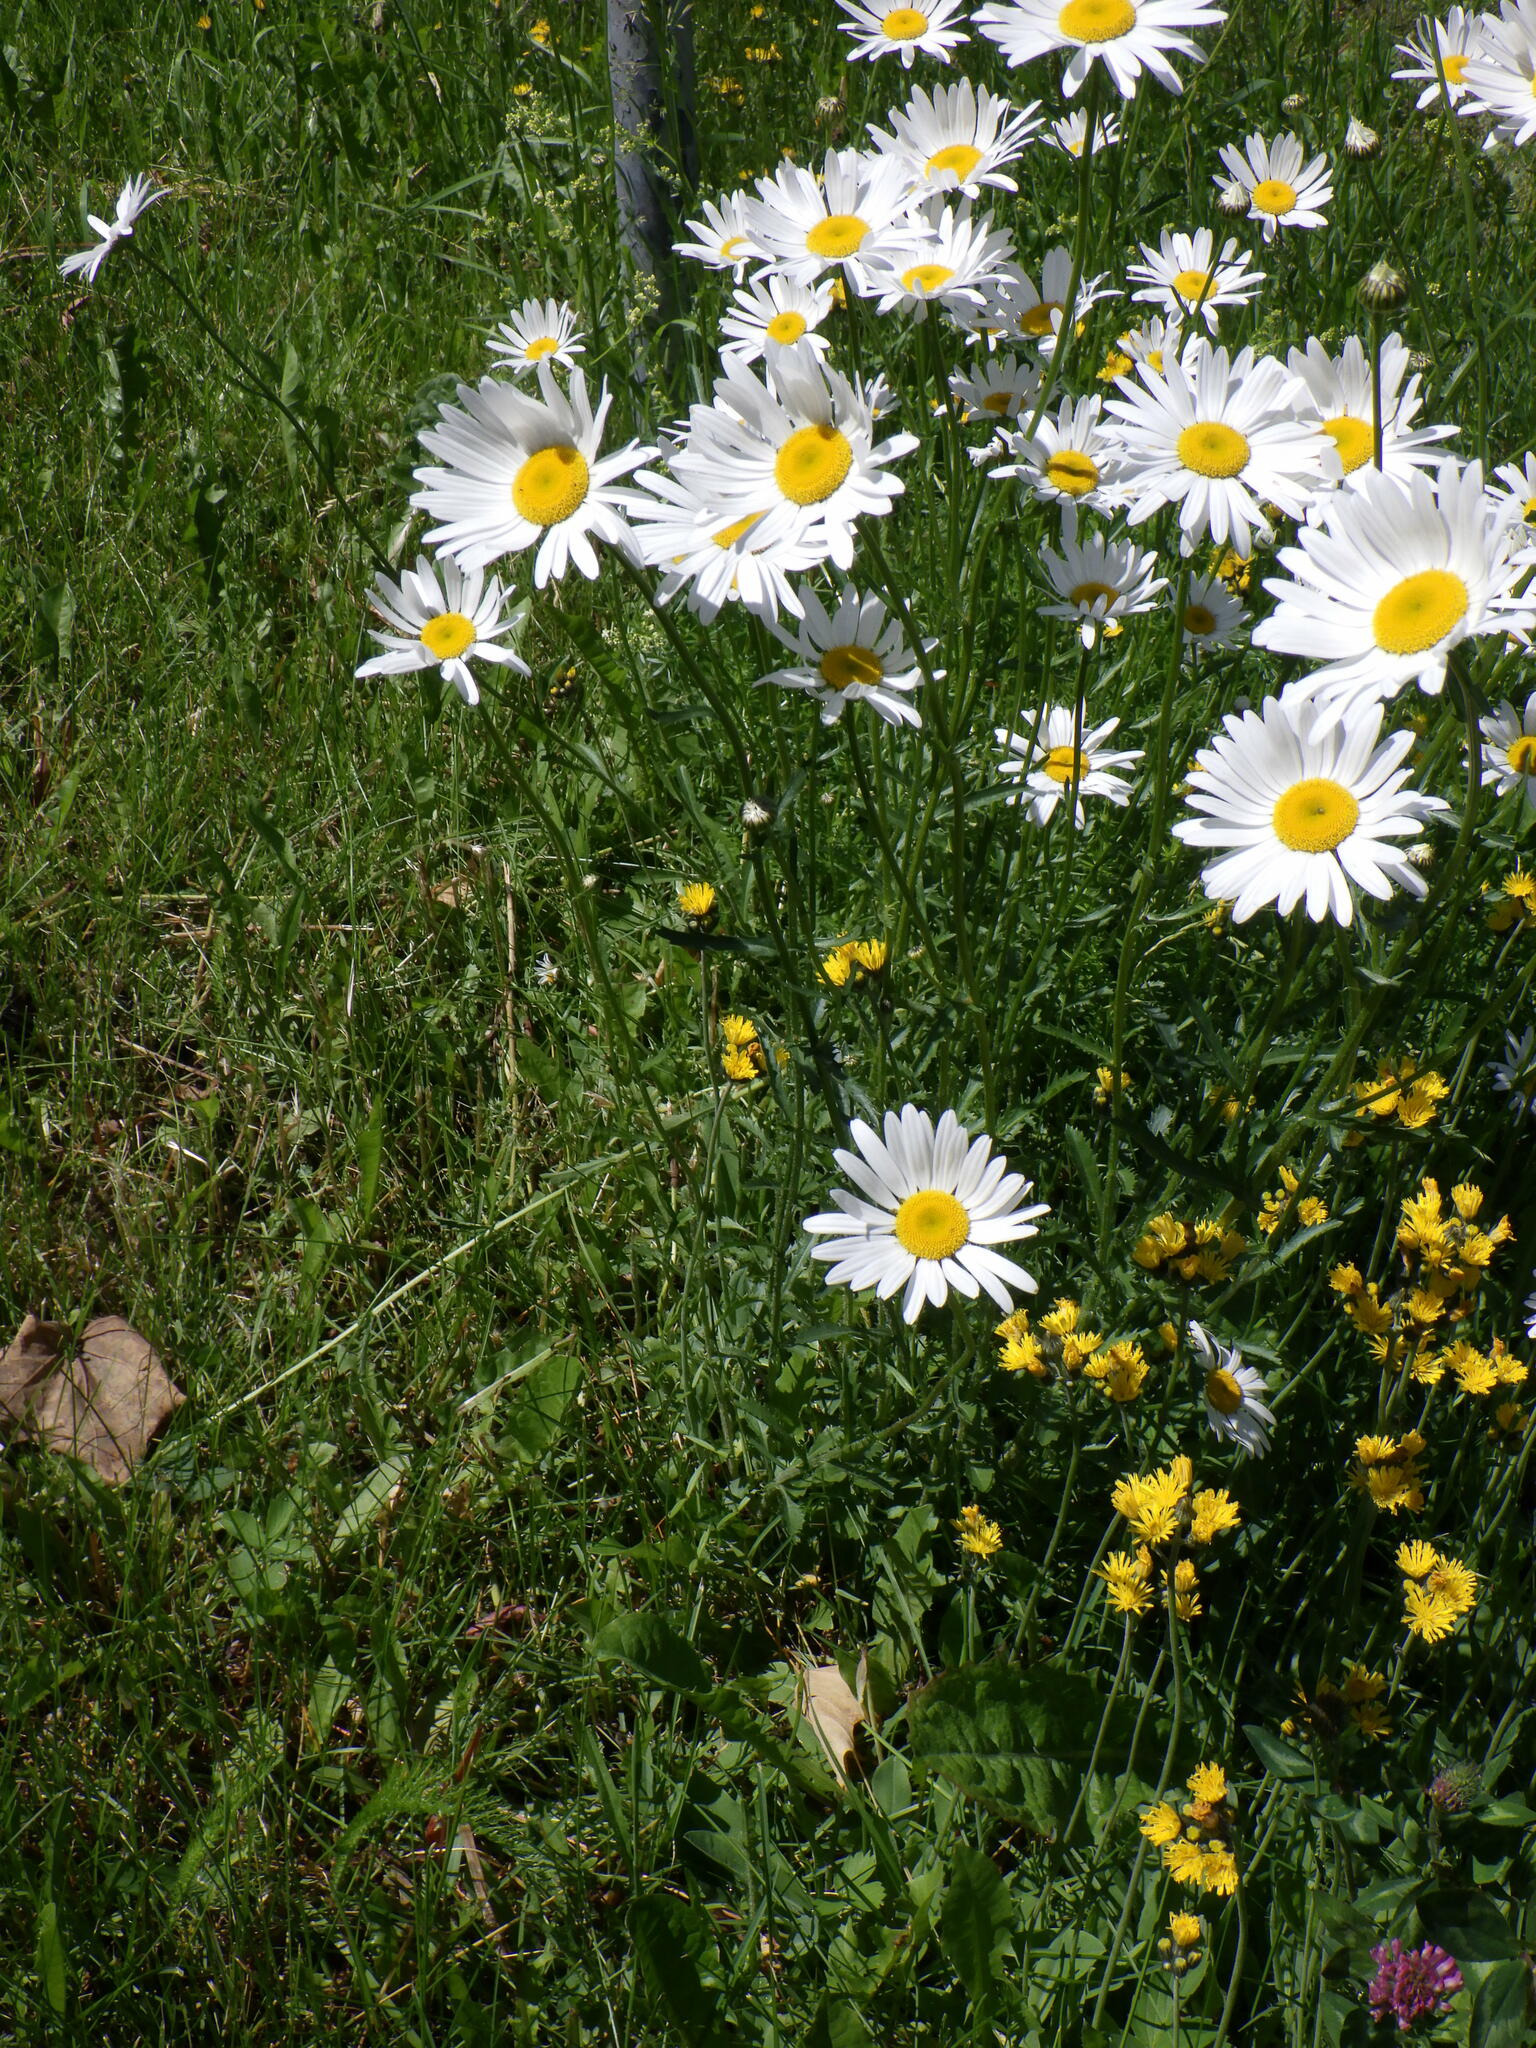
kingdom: Plantae
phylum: Tracheophyta
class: Magnoliopsida
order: Asterales
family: Asteraceae
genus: Leucanthemum
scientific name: Leucanthemum vulgare
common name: Oxeye daisy
